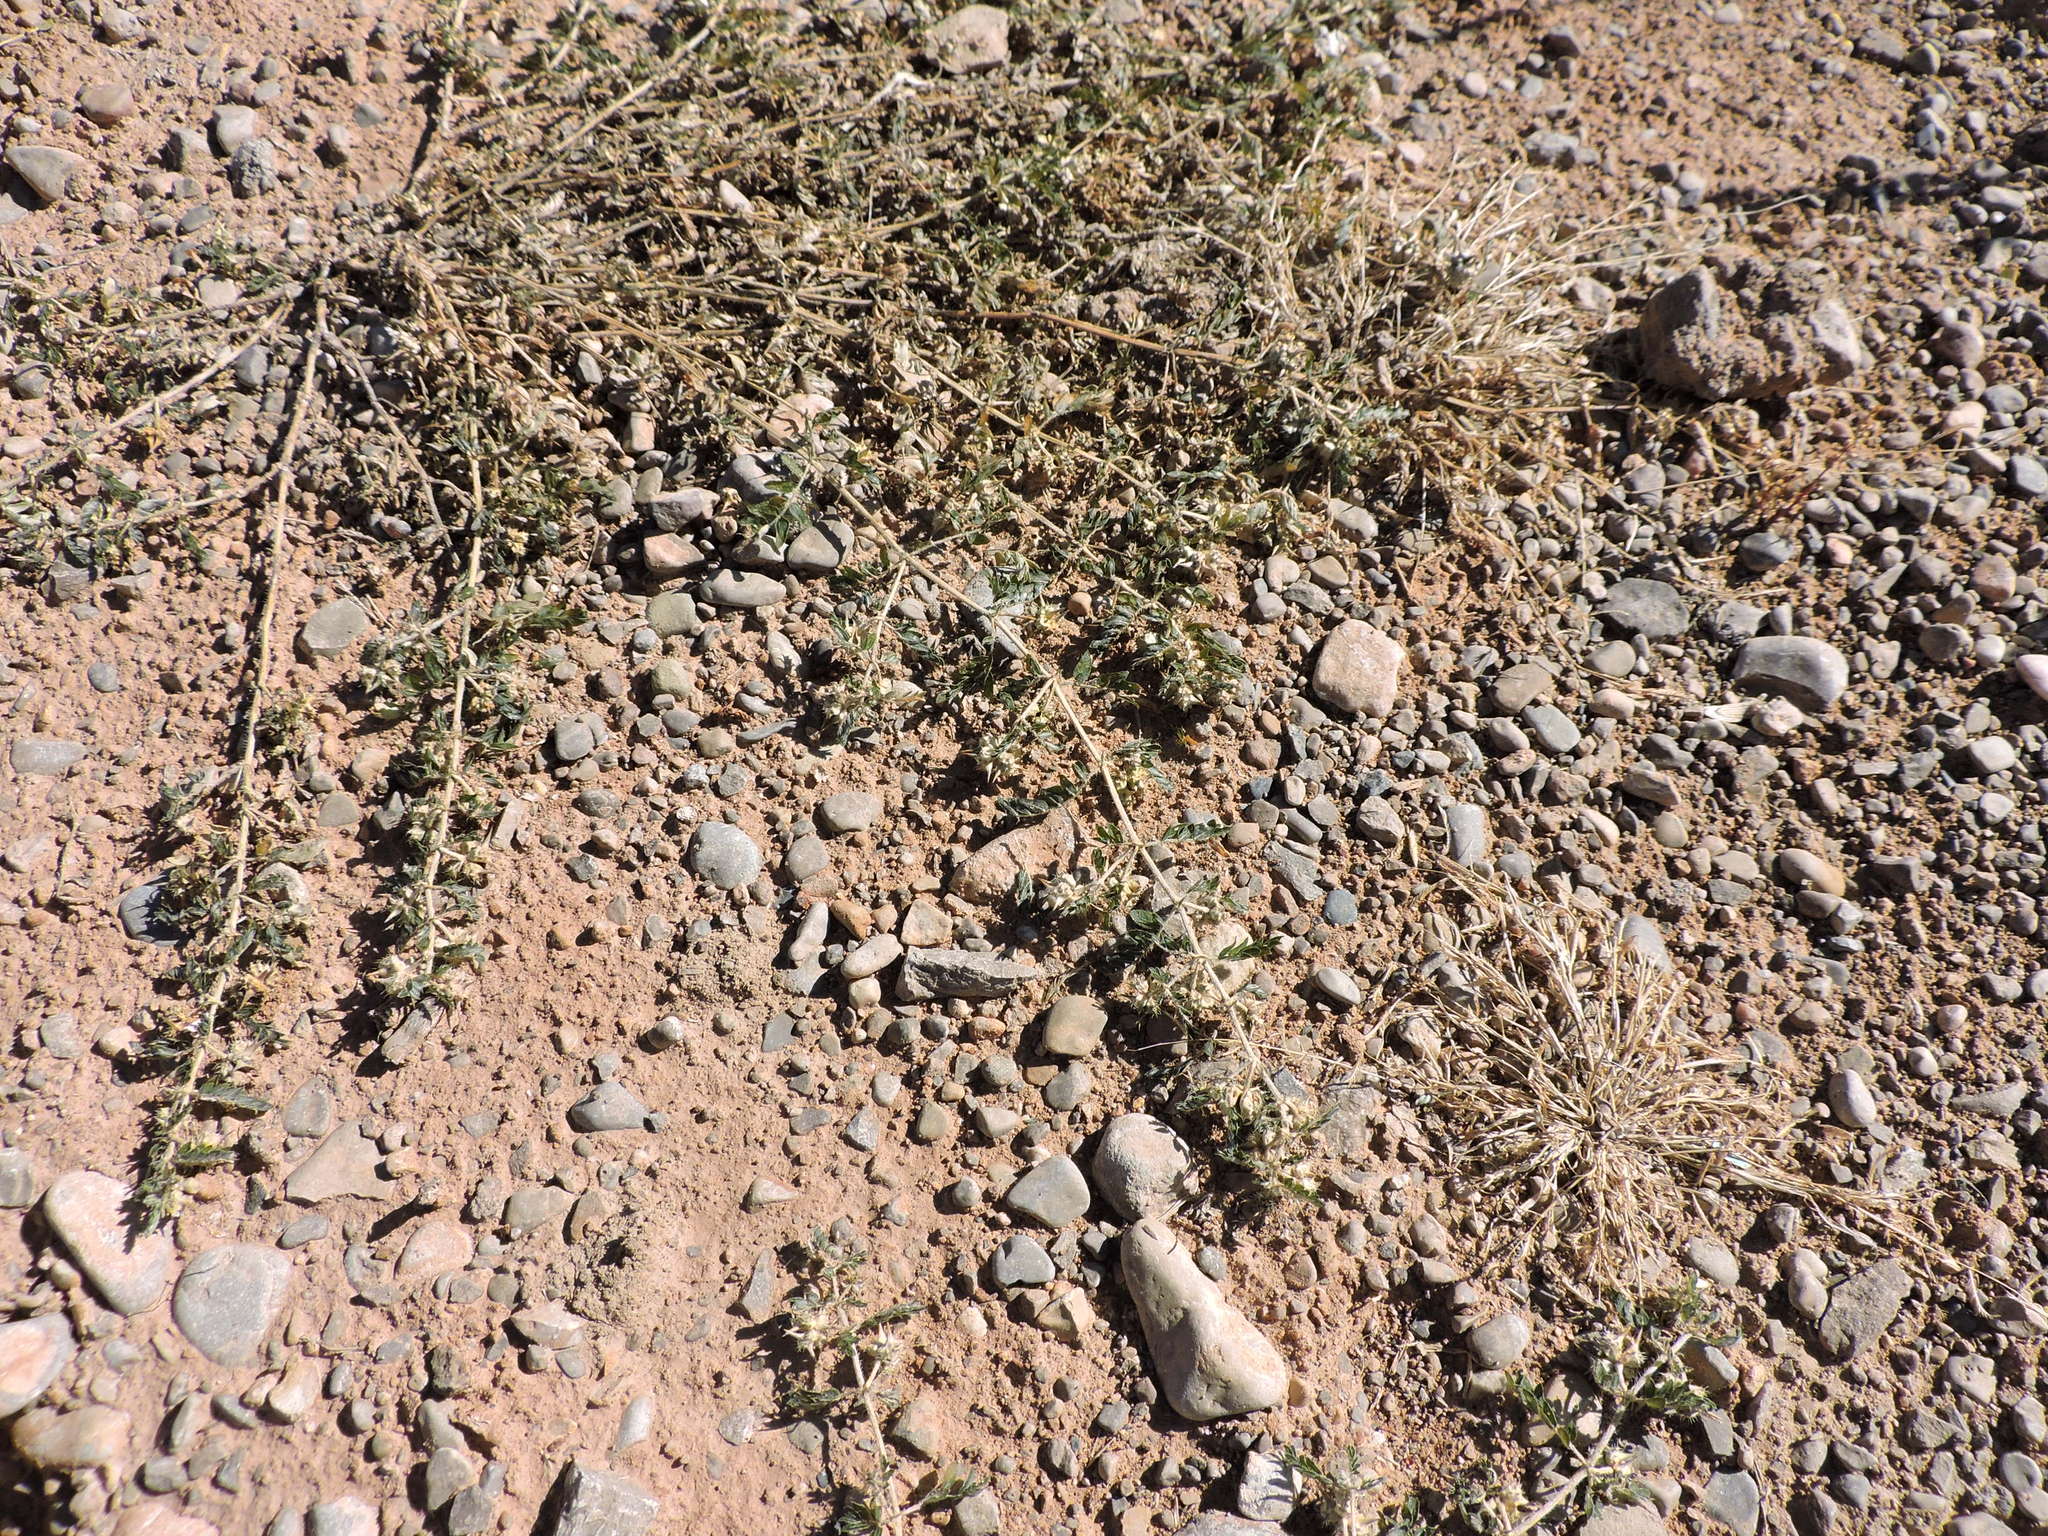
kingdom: Plantae
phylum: Tracheophyta
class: Magnoliopsida
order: Zygophyllales
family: Zygophyllaceae
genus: Tribulus
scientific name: Tribulus terrestris
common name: Puncturevine
